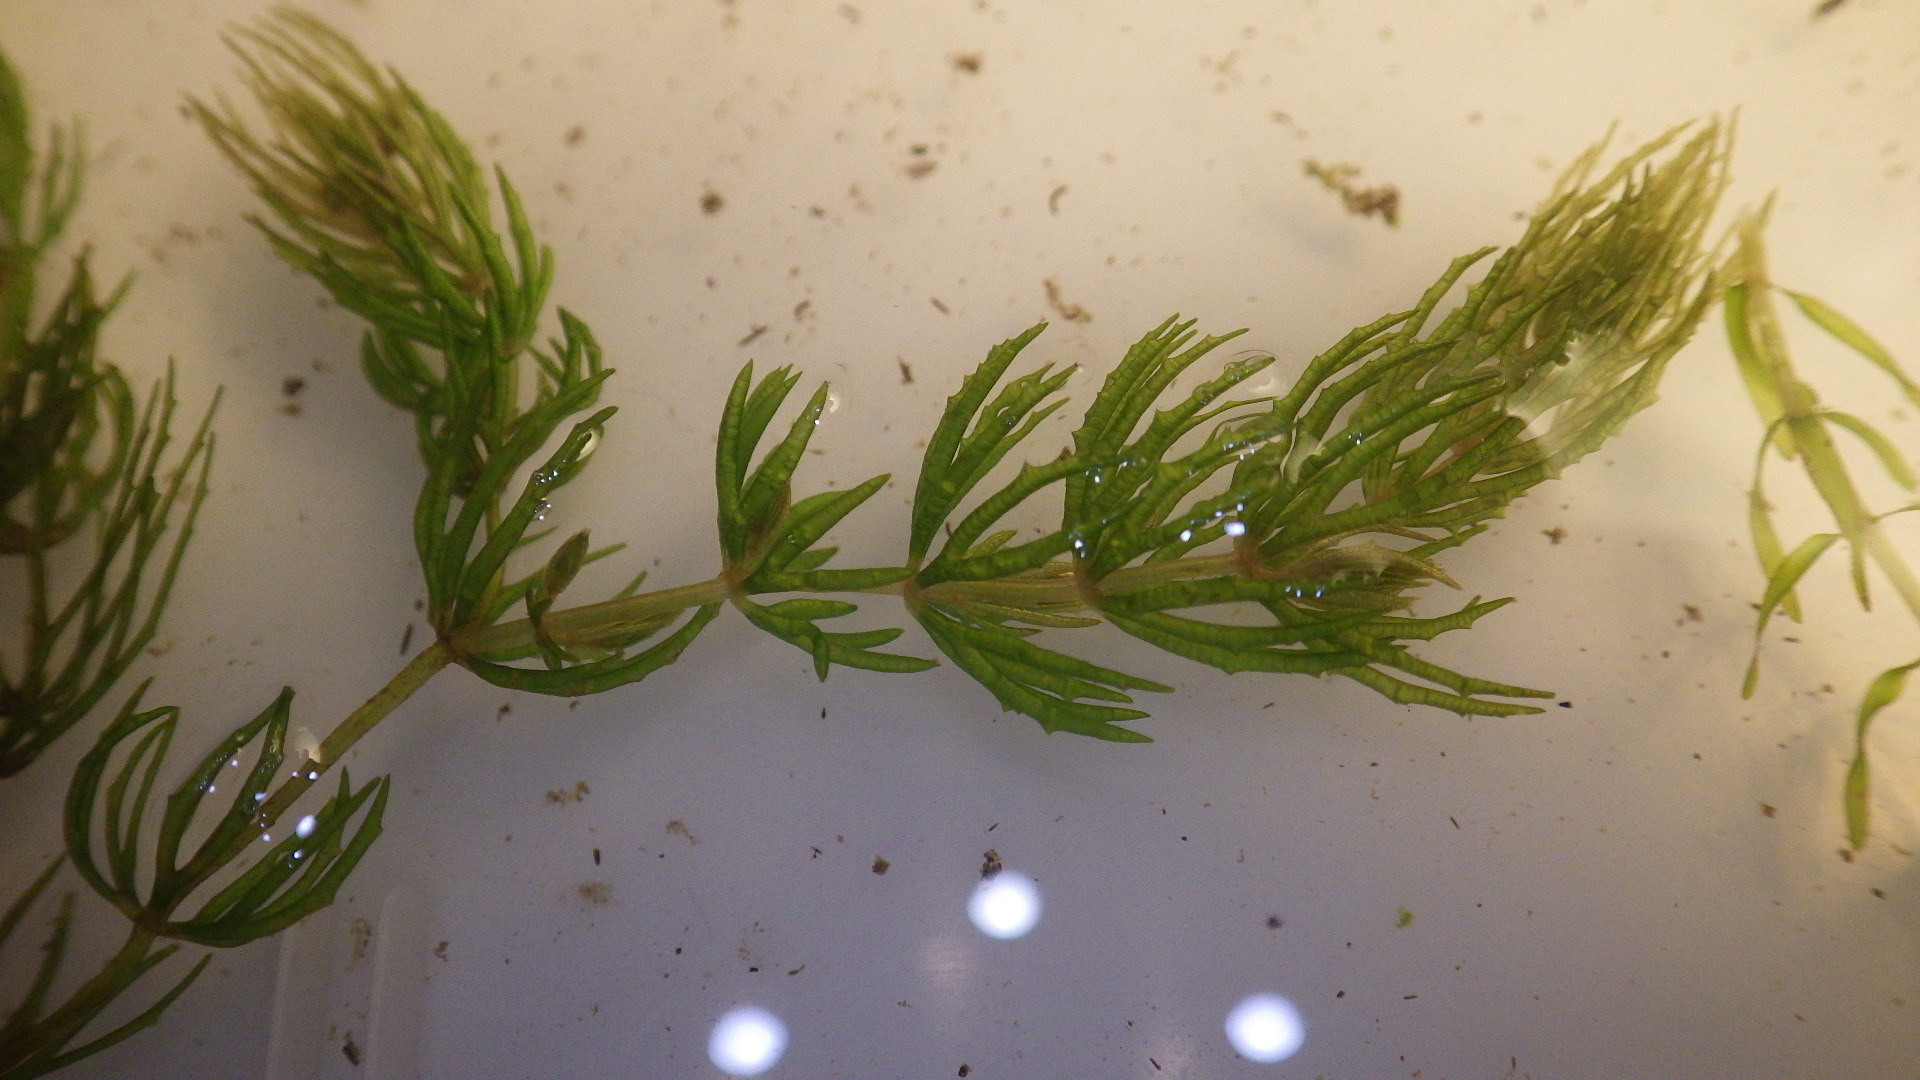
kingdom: Plantae
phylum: Tracheophyta
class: Magnoliopsida
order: Ceratophyllales
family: Ceratophyllaceae
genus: Ceratophyllum
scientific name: Ceratophyllum demersum
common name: Rigid hornwort
